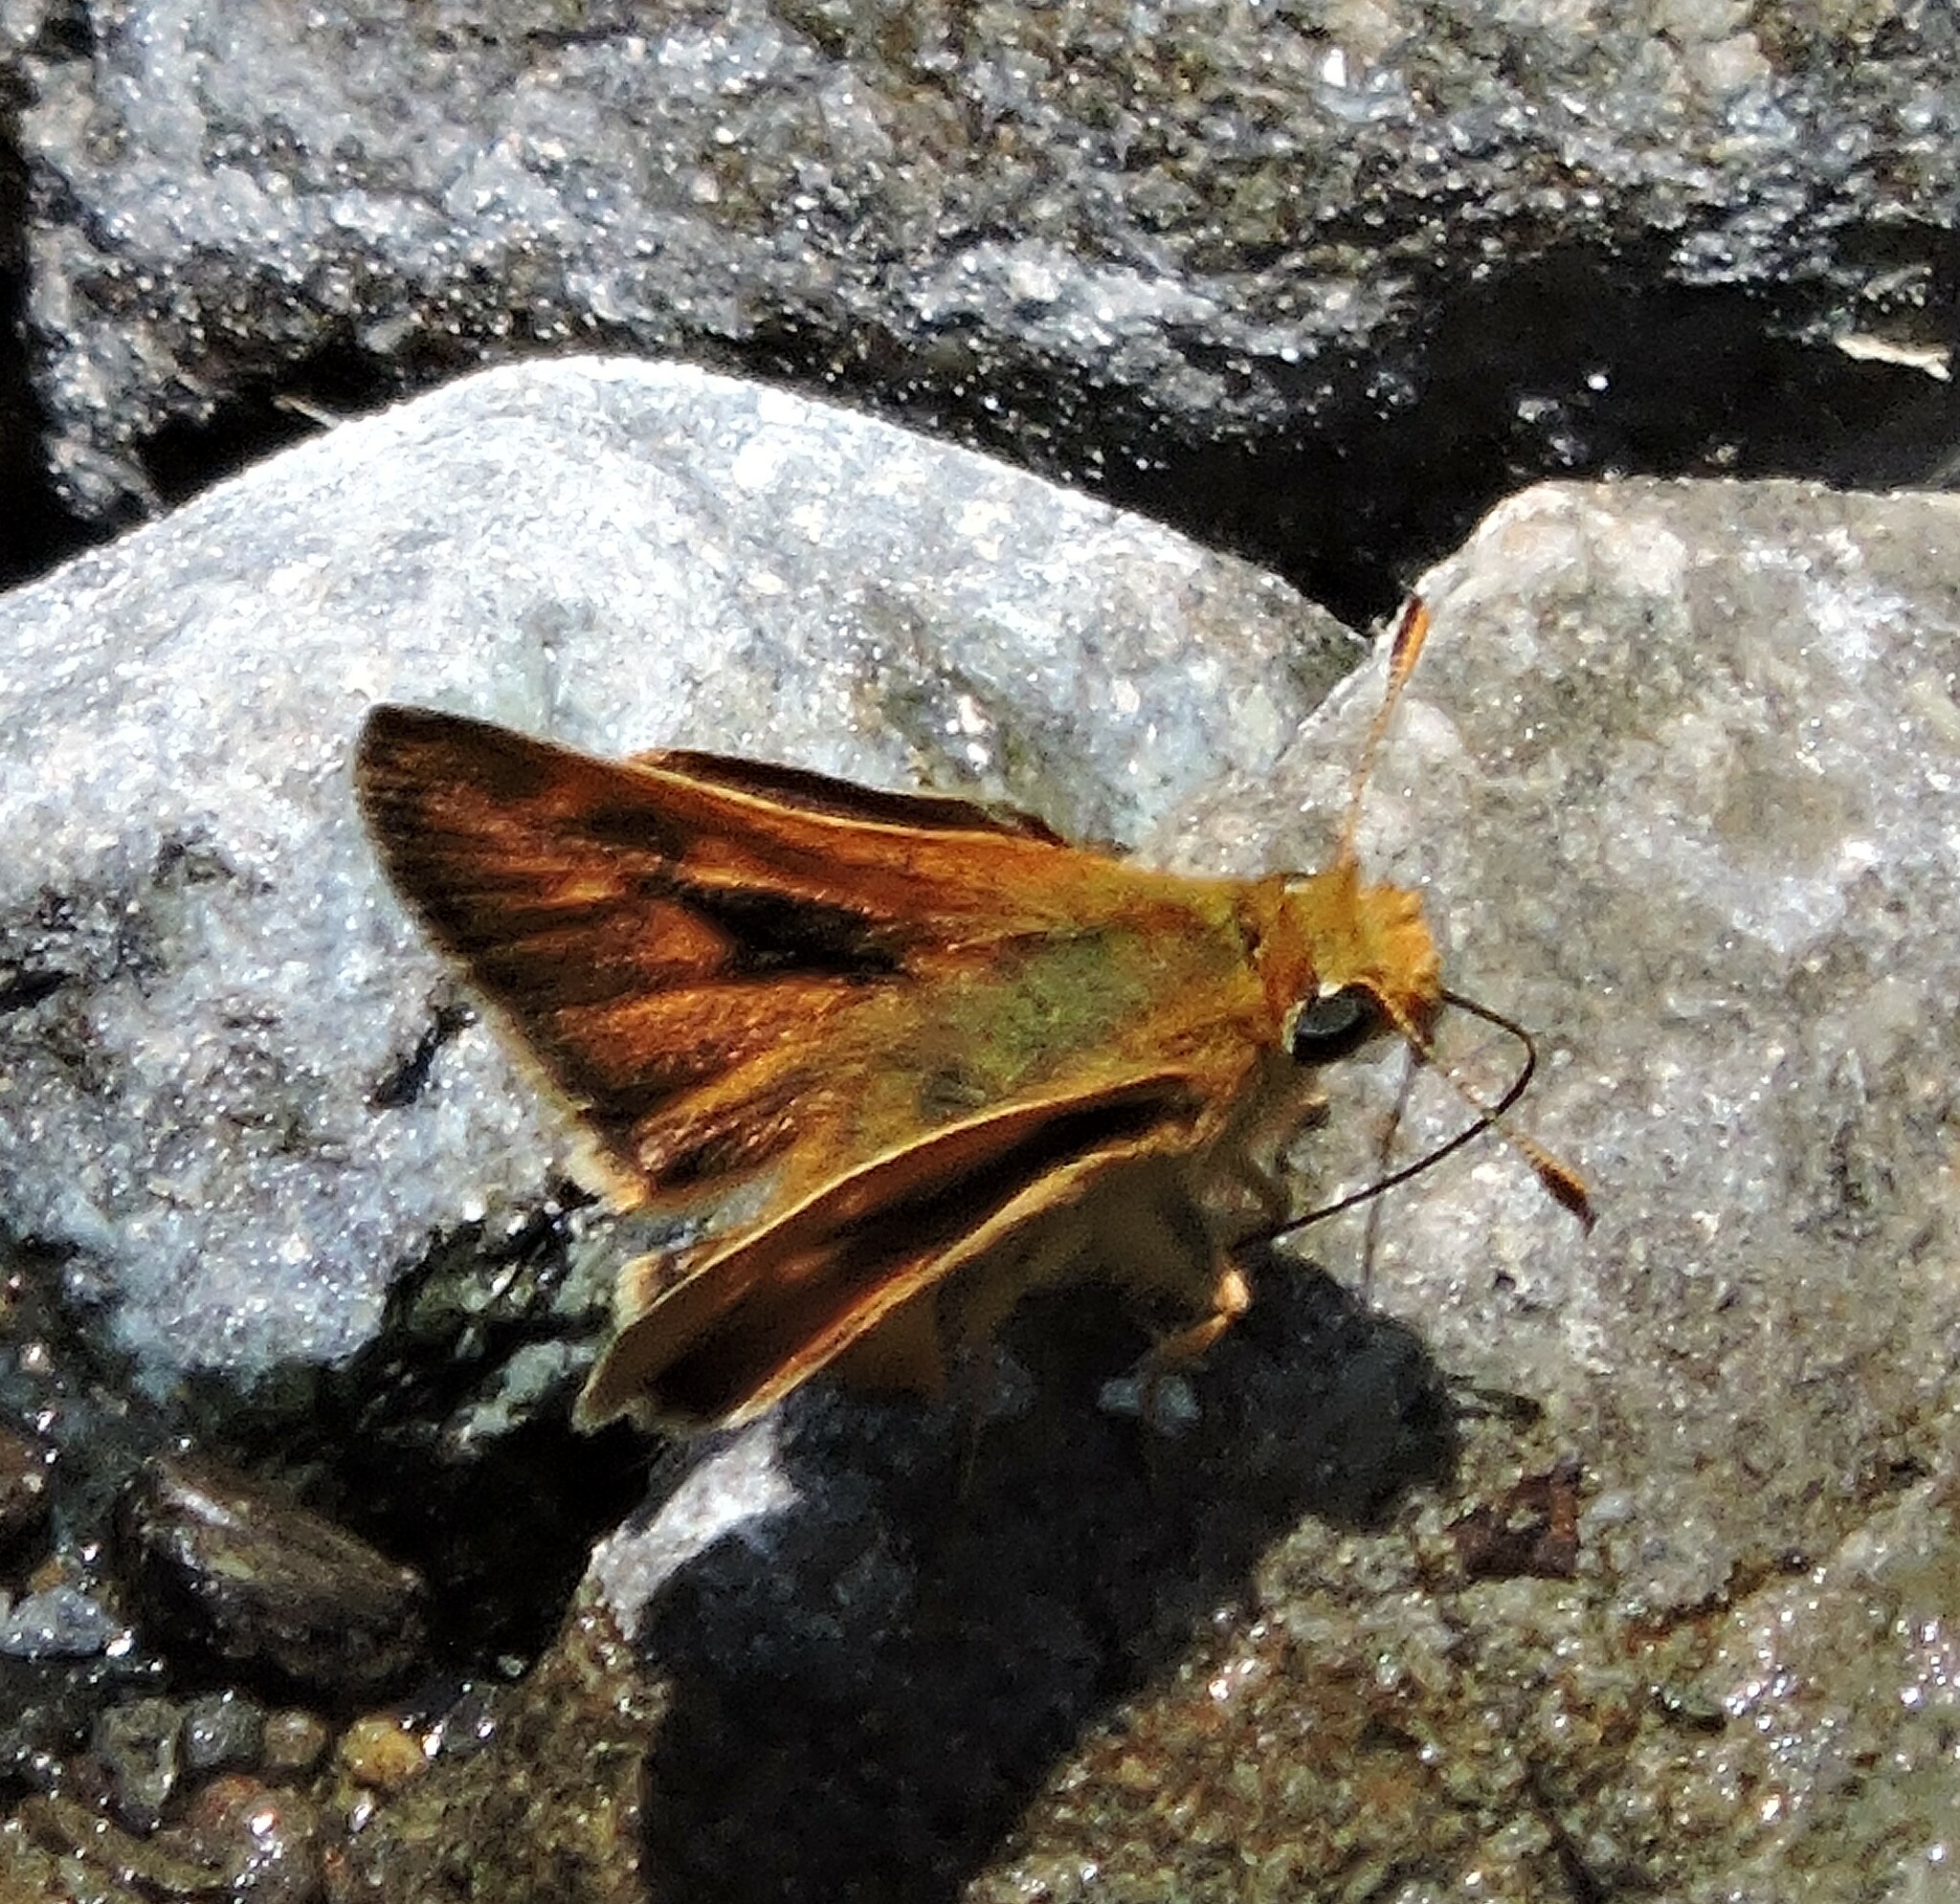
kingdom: Animalia
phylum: Arthropoda
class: Insecta
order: Lepidoptera
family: Hesperiidae
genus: Ochlodes
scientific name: Ochlodes agricola
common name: Rural skipper
